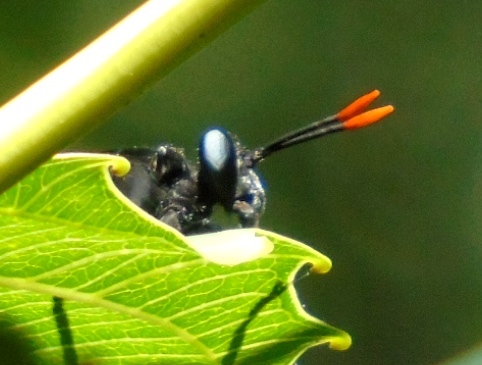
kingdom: Animalia
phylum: Arthropoda
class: Insecta
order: Diptera
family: Mydidae
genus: Mydas
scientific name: Mydas rubidapex
